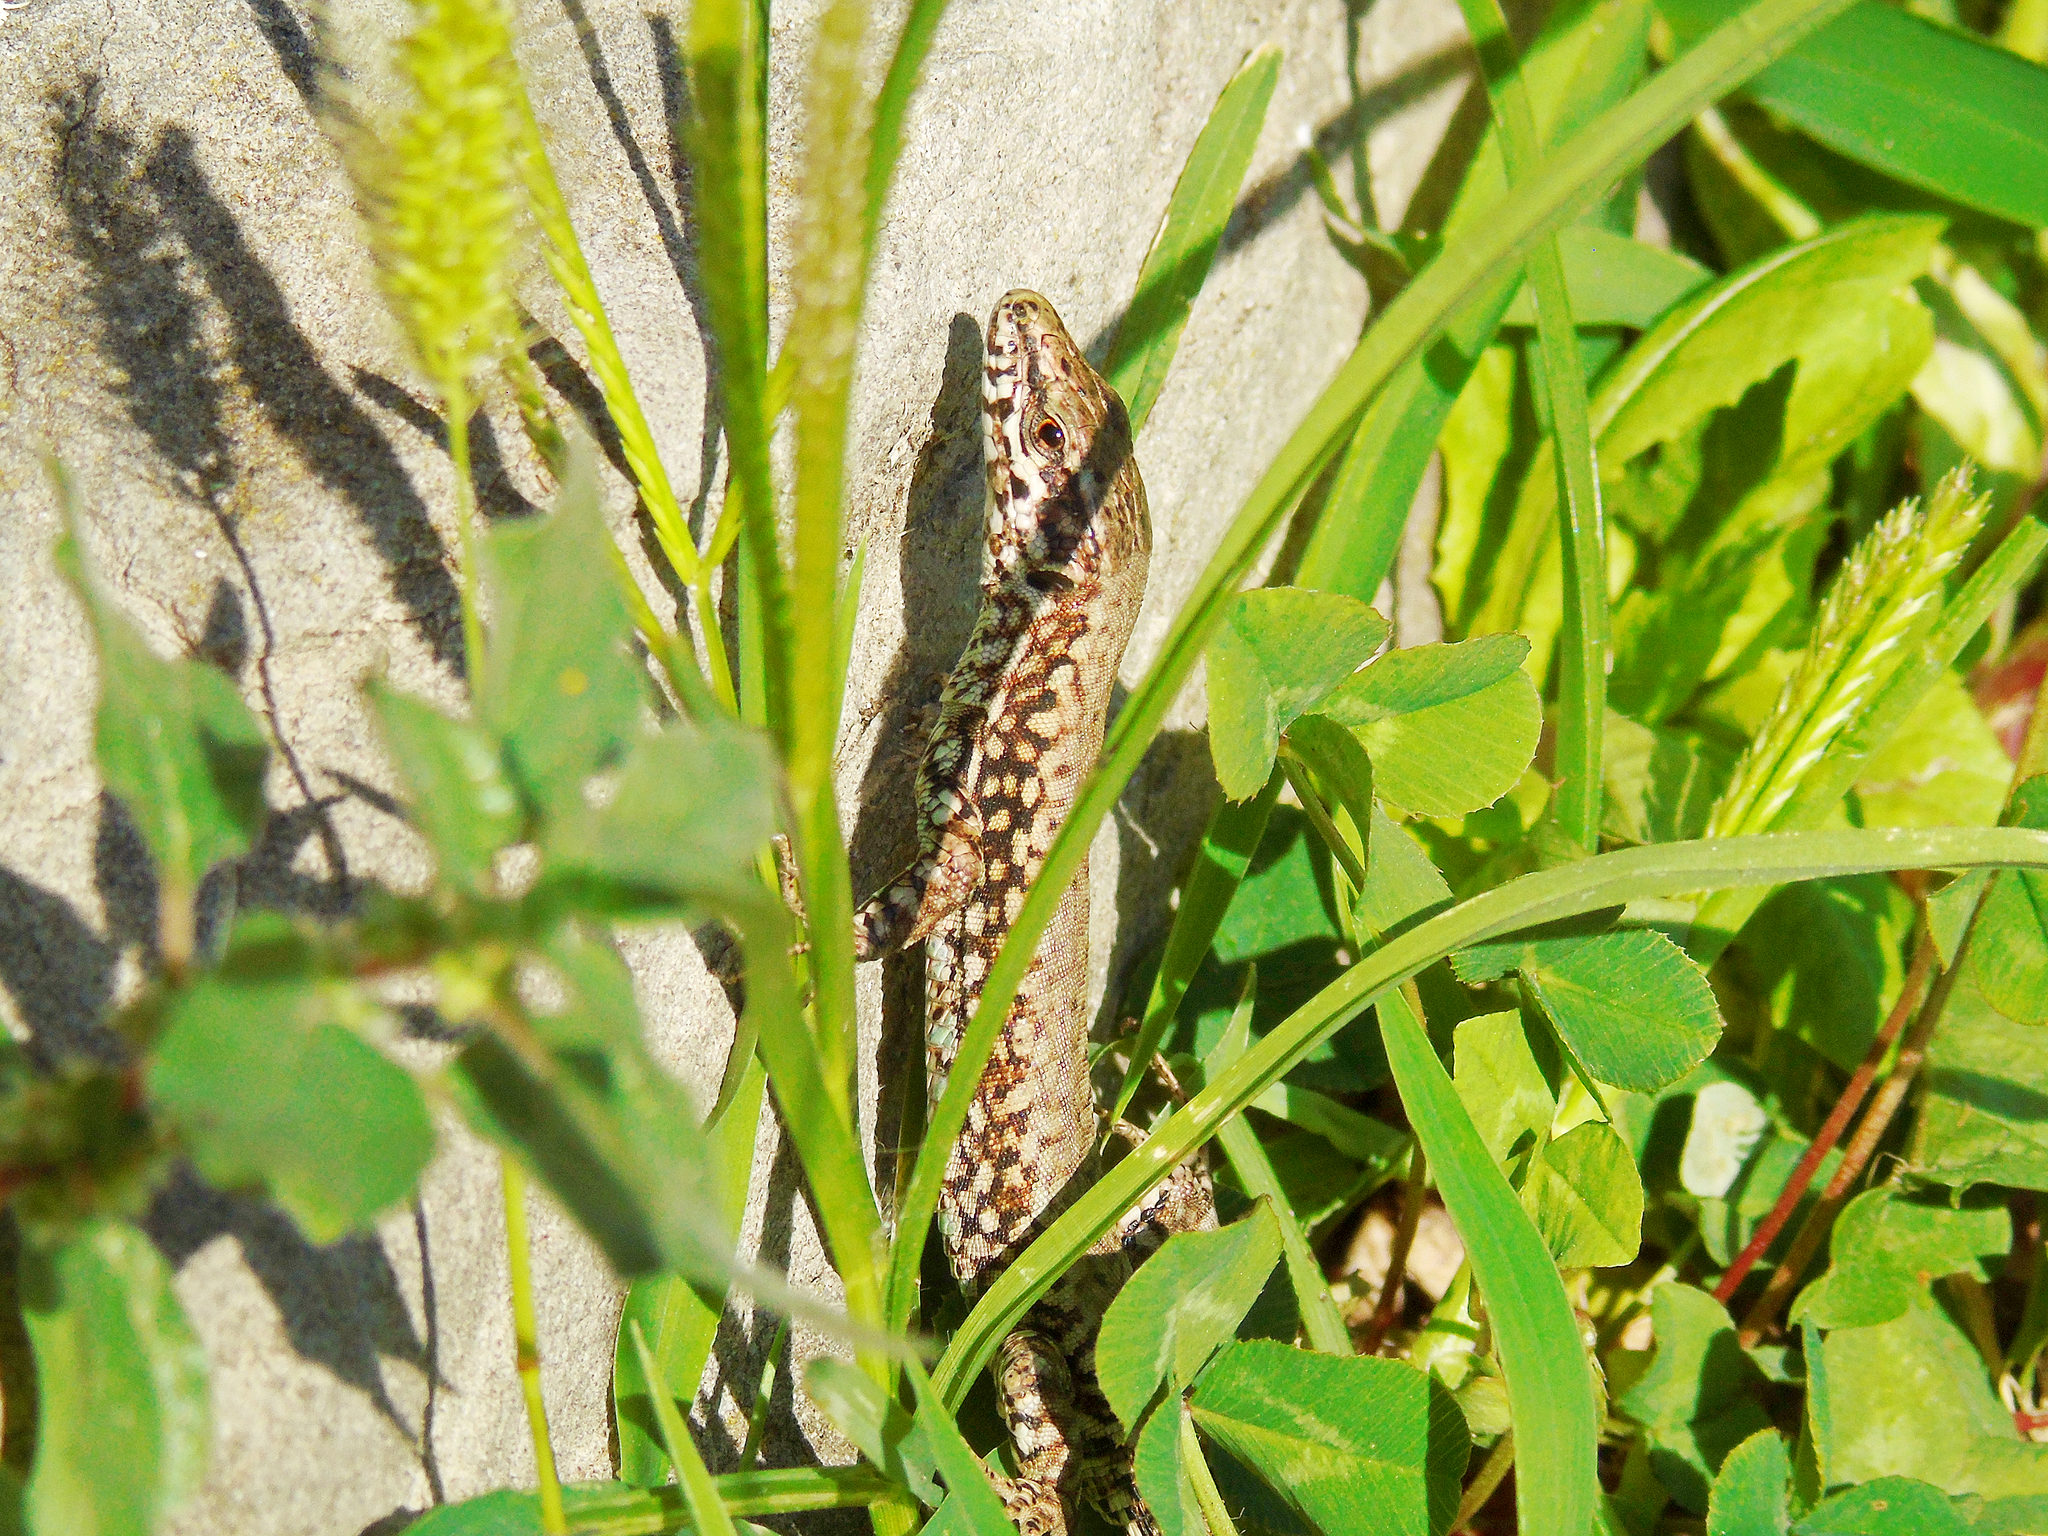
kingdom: Animalia
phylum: Chordata
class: Squamata
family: Lacertidae
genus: Podarcis
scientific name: Podarcis muralis
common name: Common wall lizard
